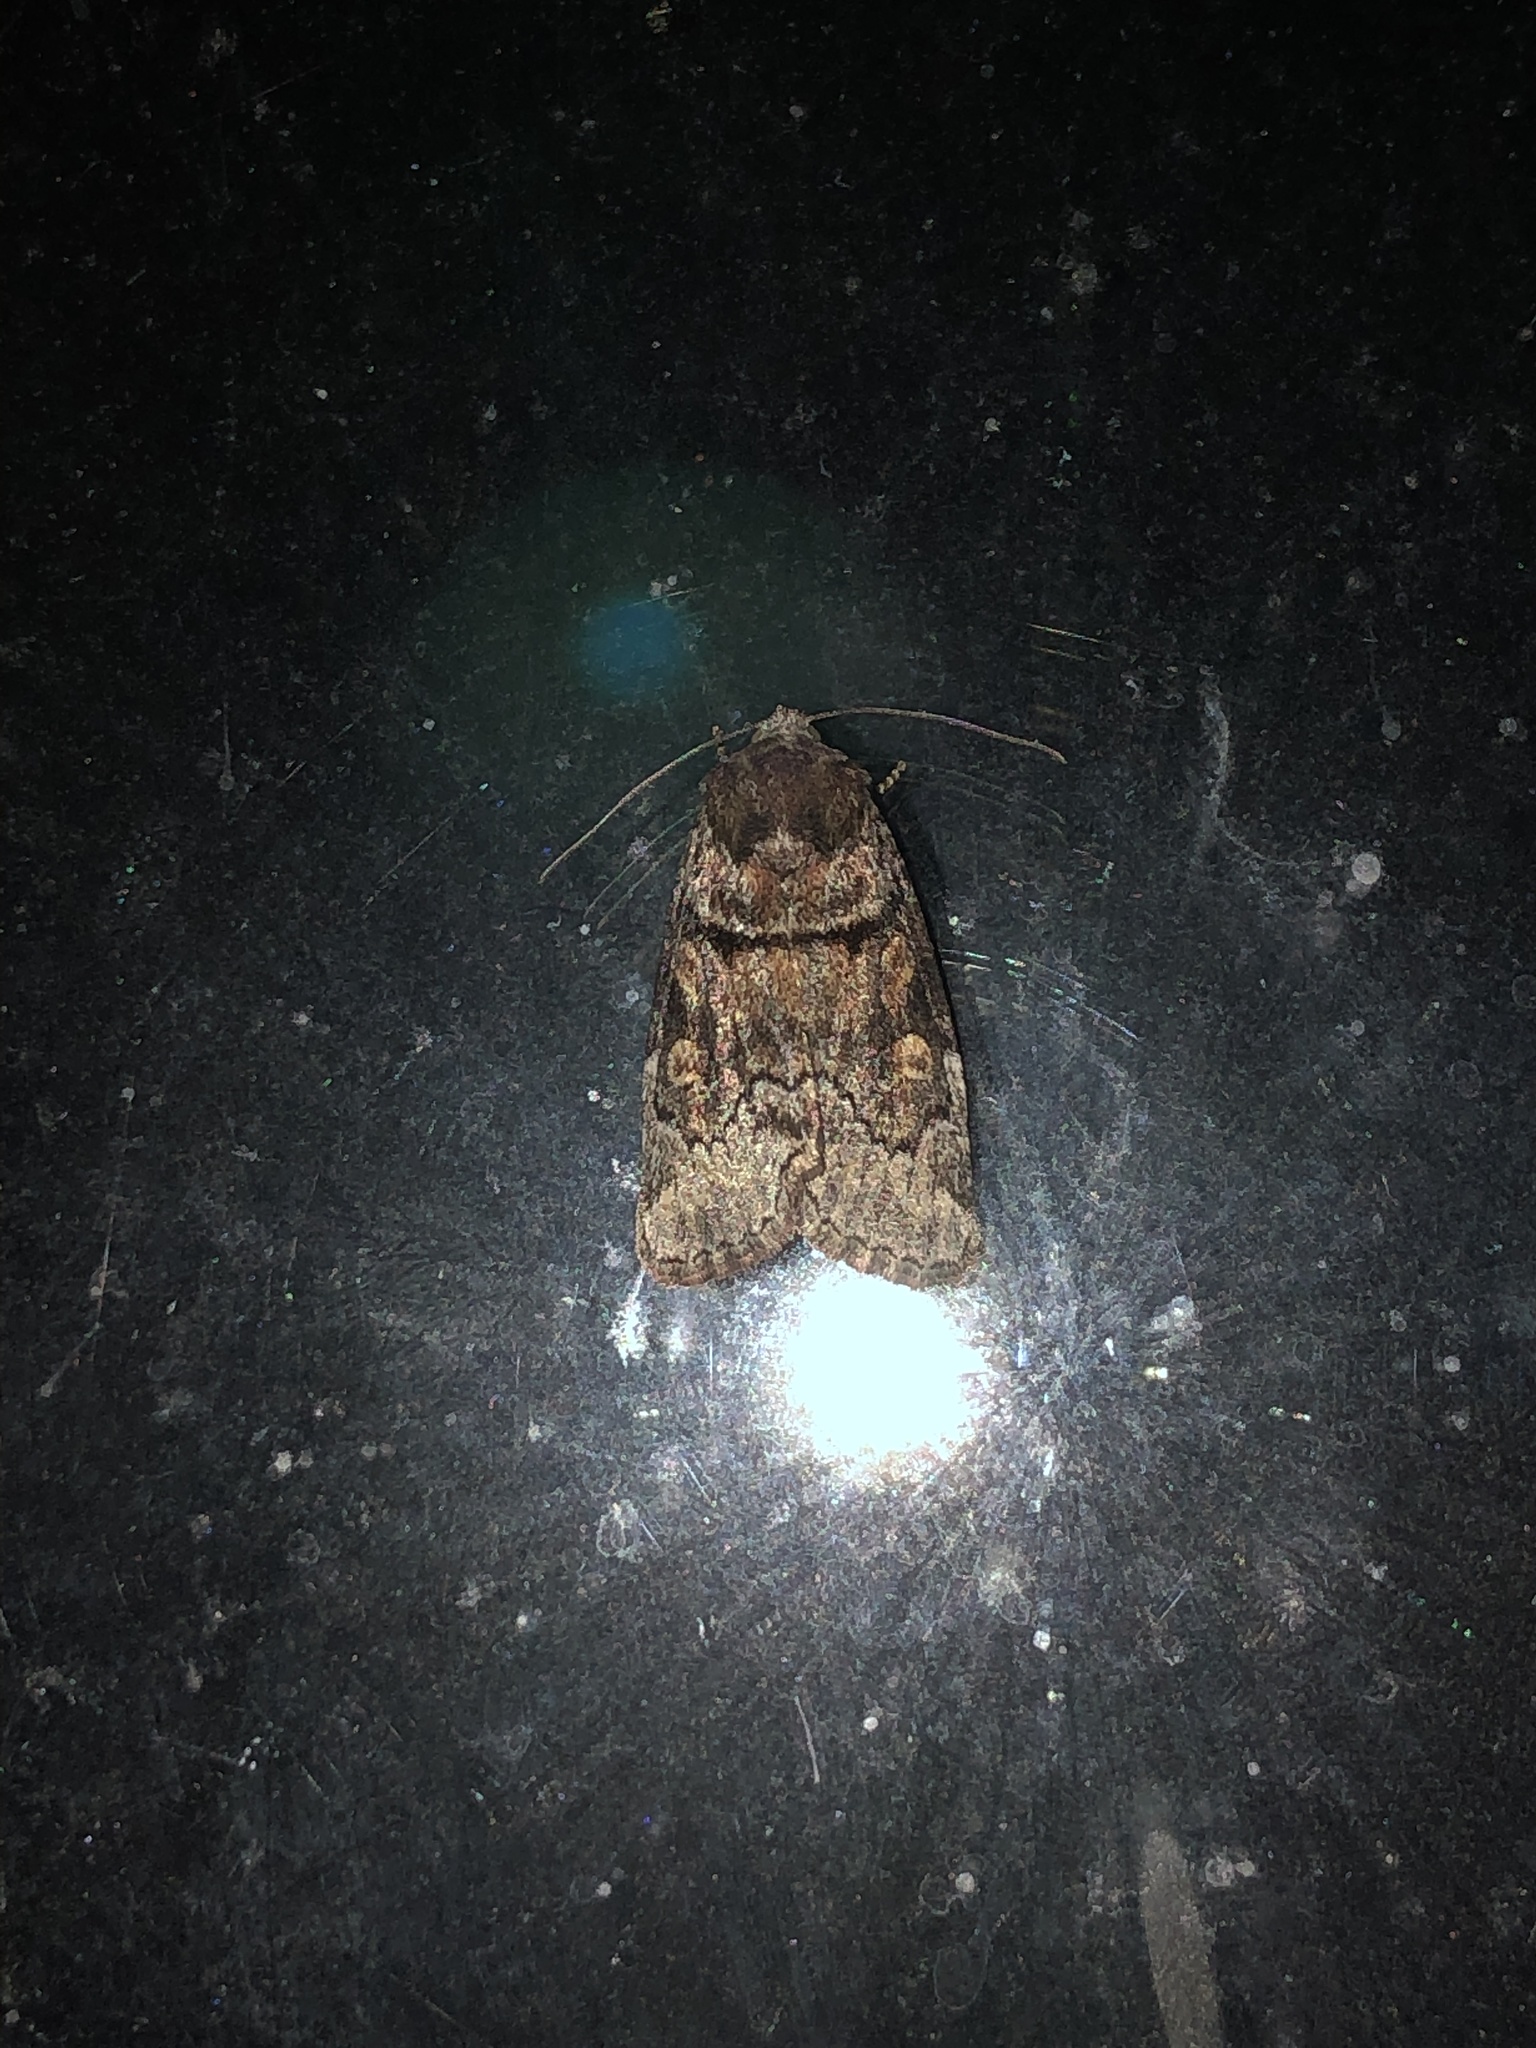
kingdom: Animalia
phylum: Arthropoda
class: Insecta
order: Lepidoptera
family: Noctuidae
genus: Cosmia
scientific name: Cosmia praeacuta
